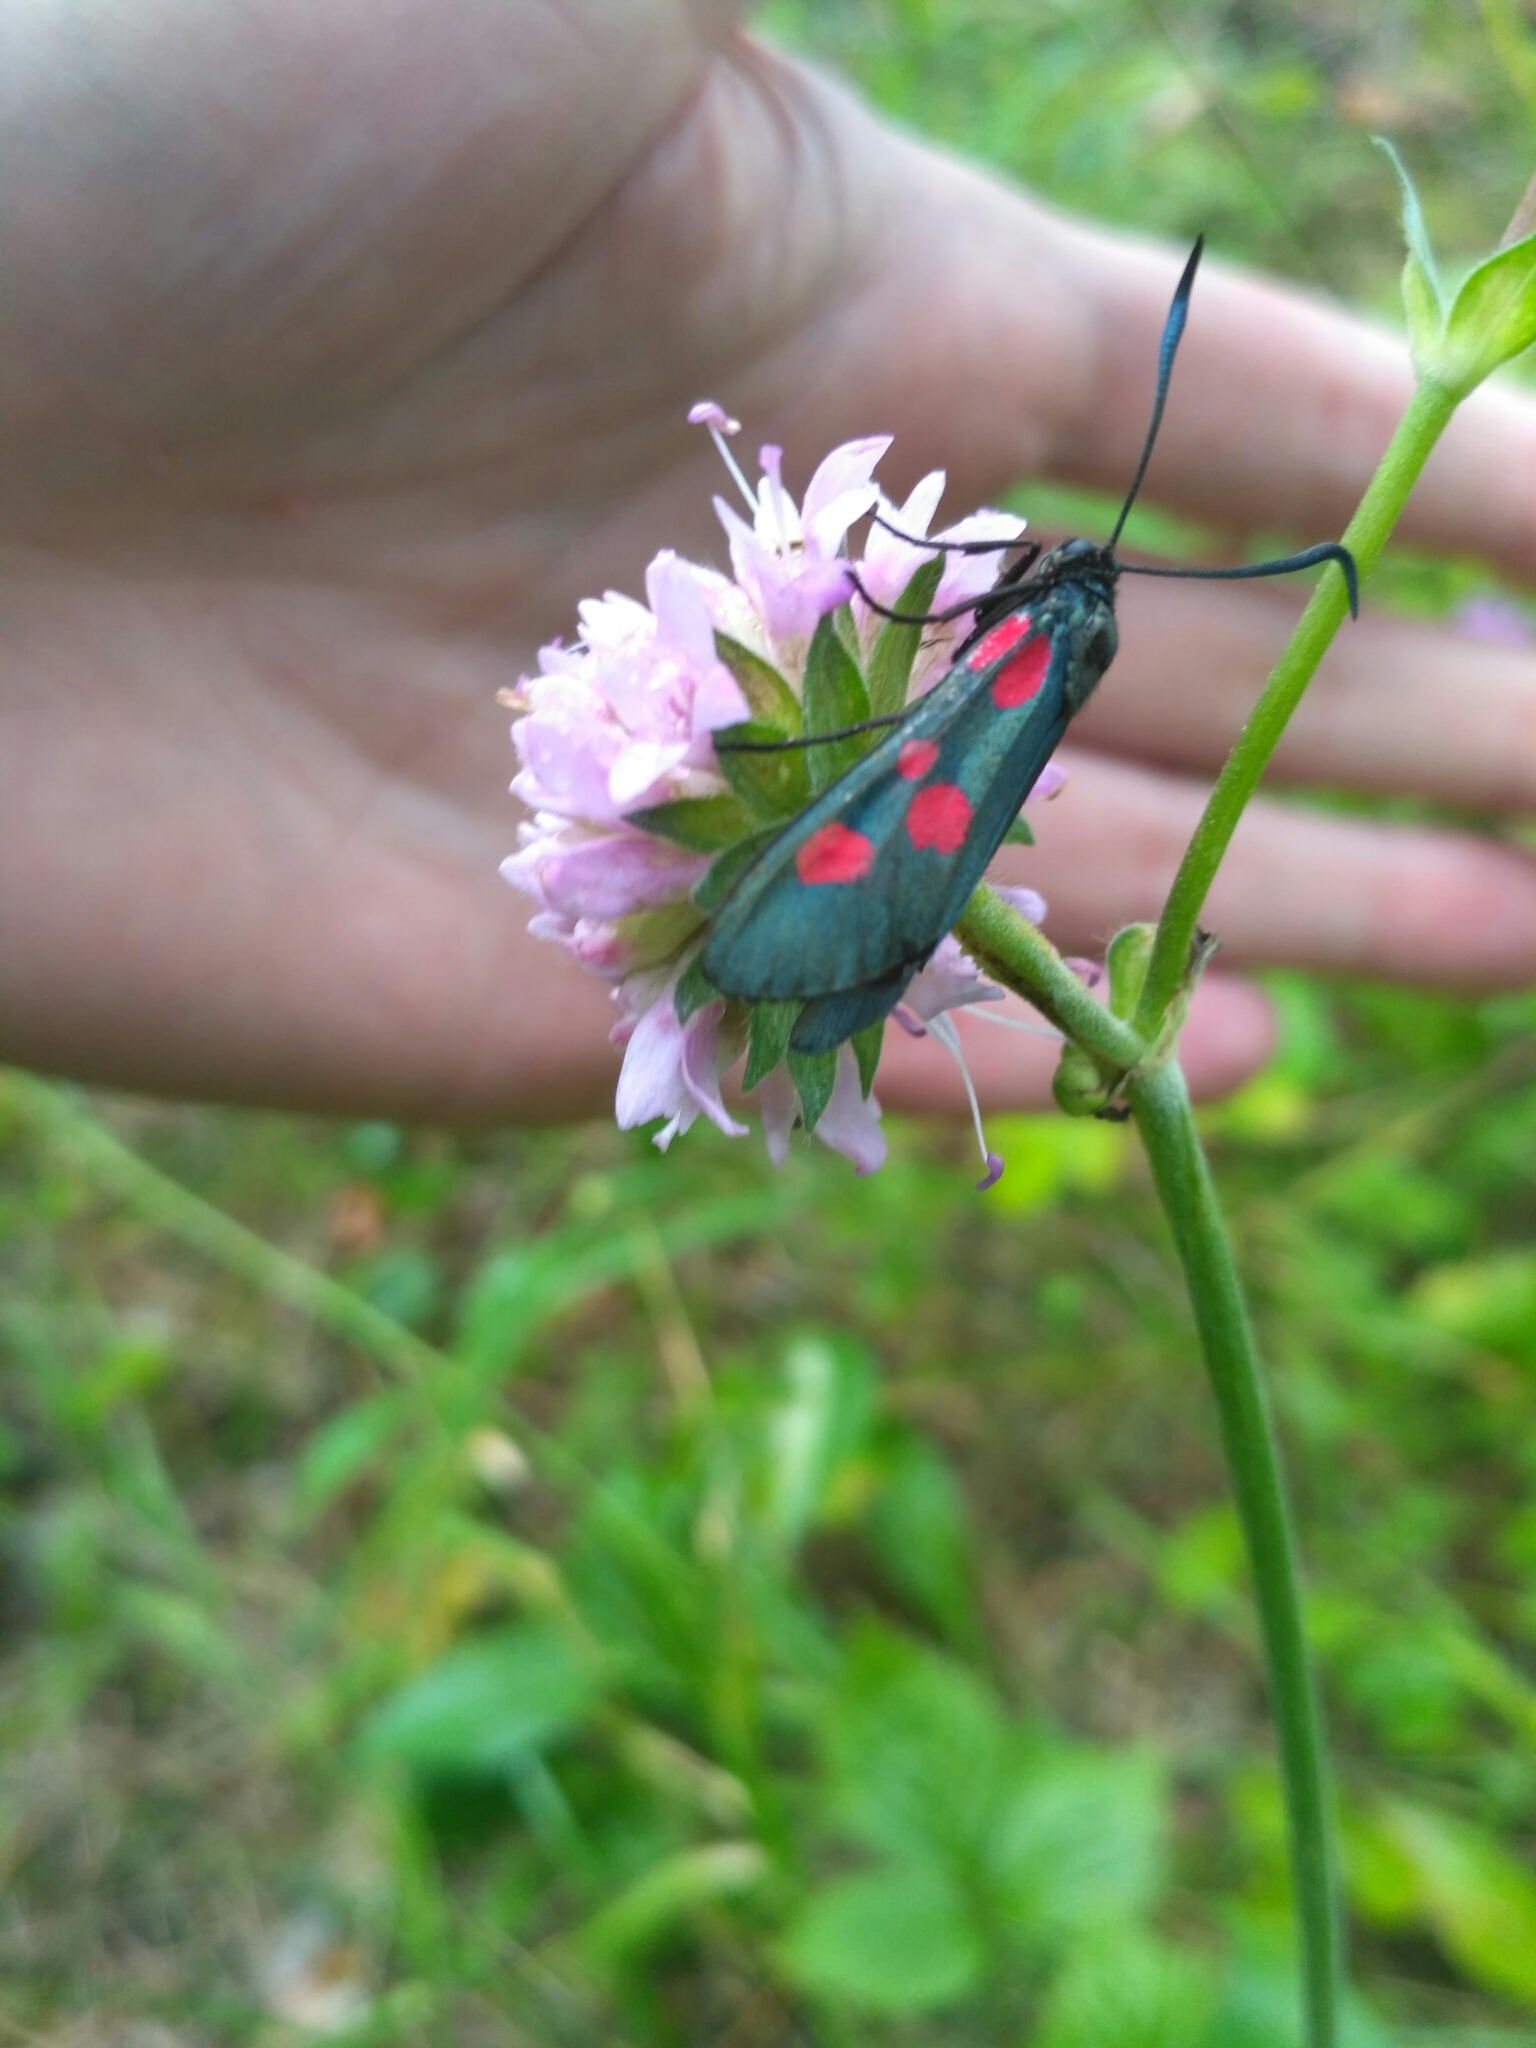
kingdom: Animalia
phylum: Arthropoda
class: Insecta
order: Lepidoptera
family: Zygaenidae
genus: Zygaena
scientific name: Zygaena lonicerae
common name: Narrow-bordered five-spot burnet
